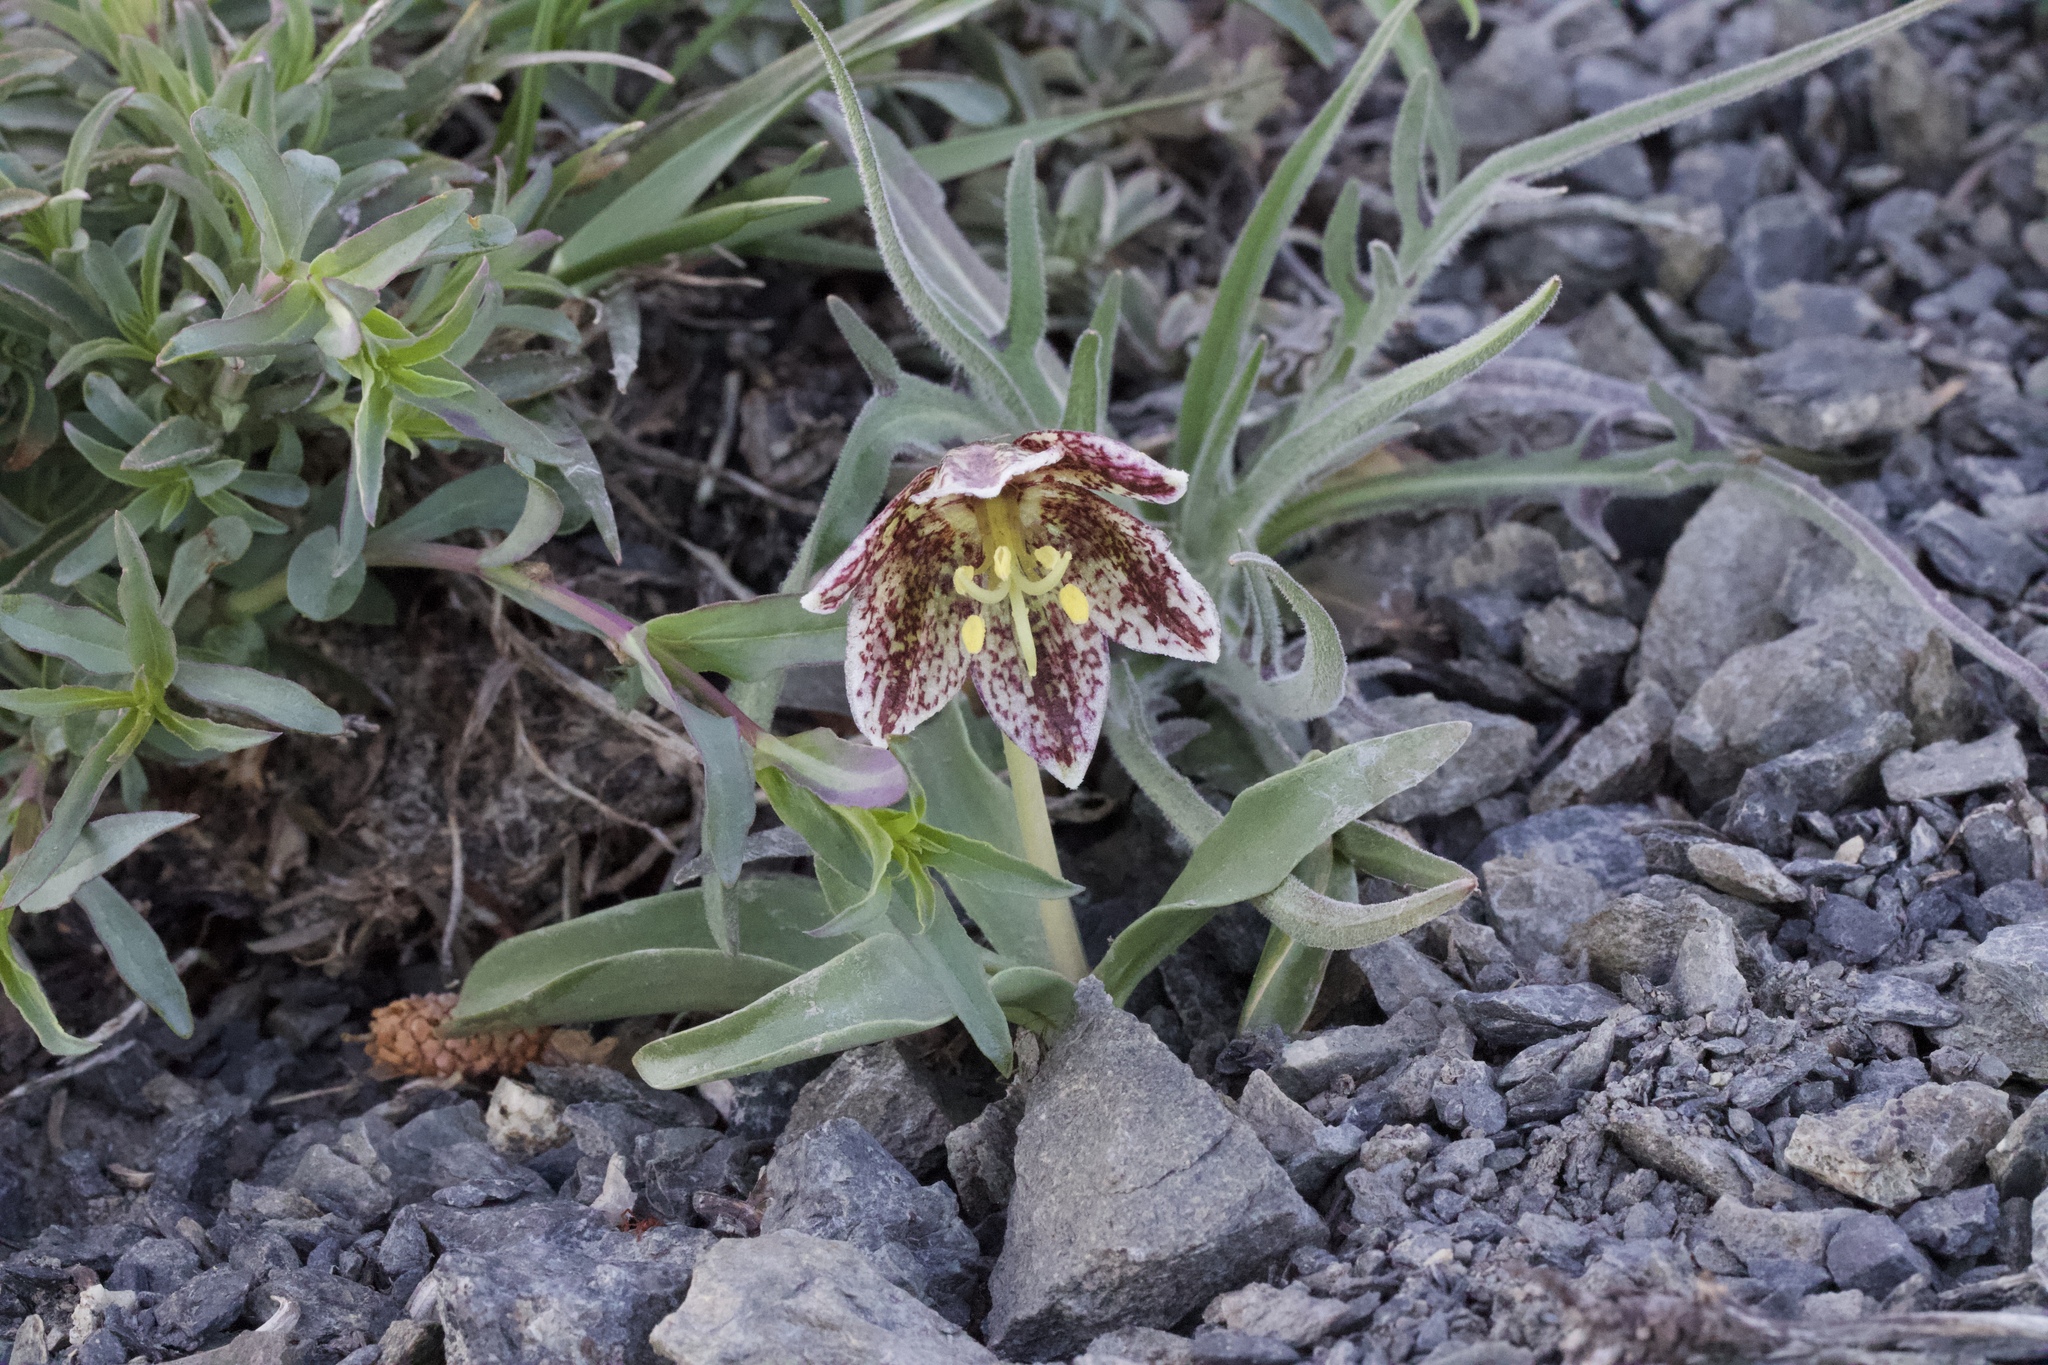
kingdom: Plantae
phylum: Tracheophyta
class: Liliopsida
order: Liliales
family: Liliaceae
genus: Fritillaria
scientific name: Fritillaria purdyi
